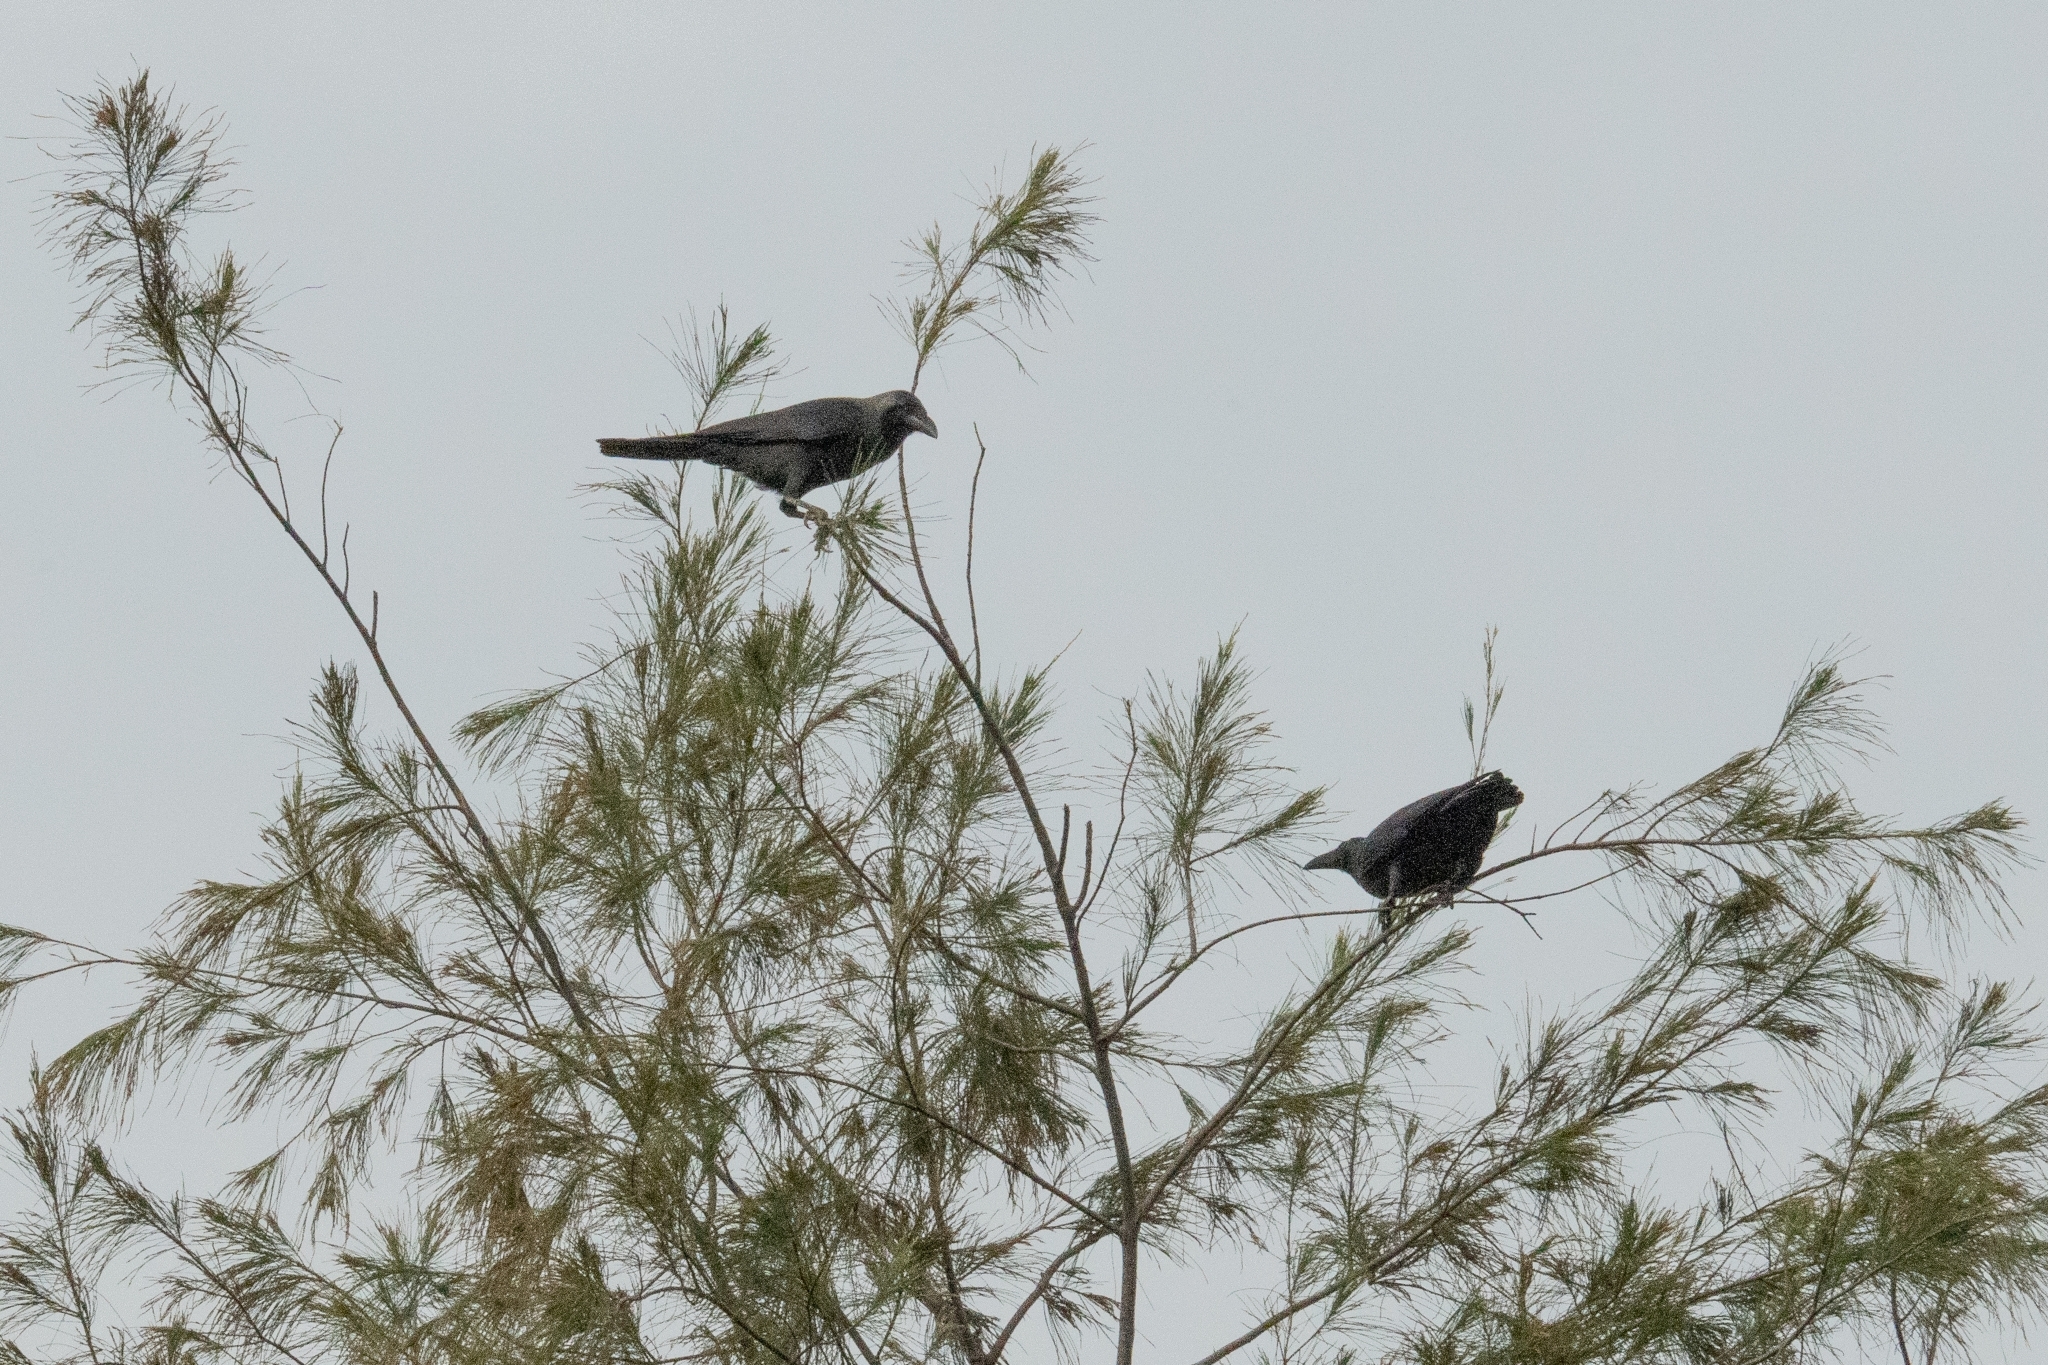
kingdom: Animalia
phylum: Chordata
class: Aves
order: Passeriformes
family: Corvidae
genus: Corvus
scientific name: Corvus splendens
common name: House crow
